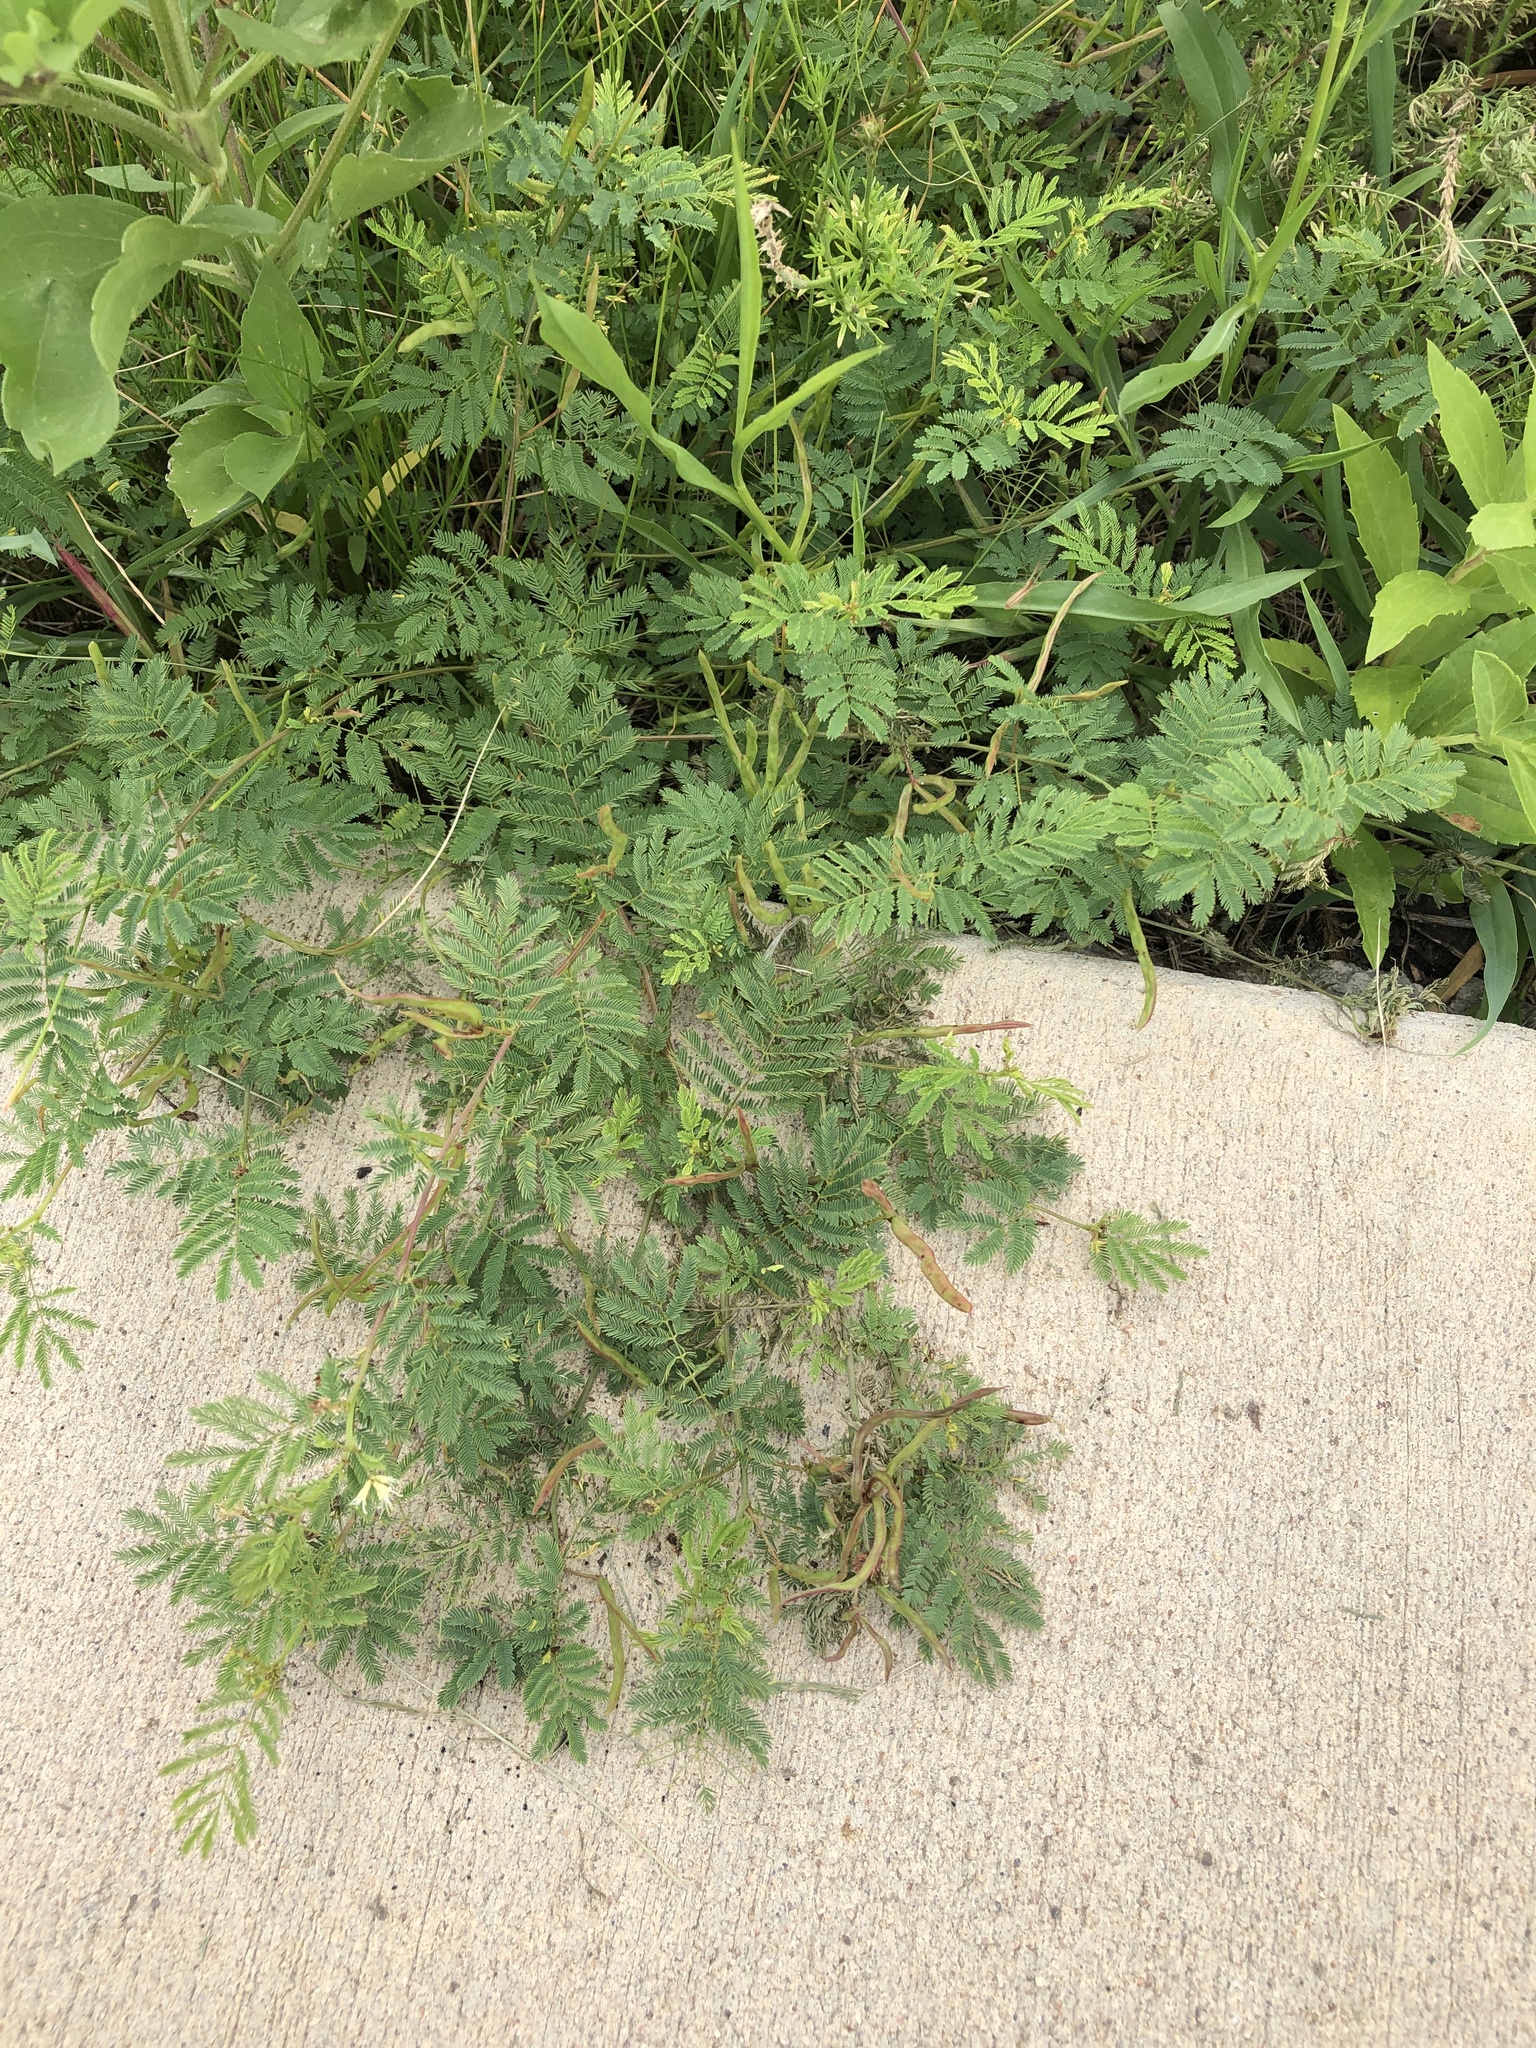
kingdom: Plantae
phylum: Tracheophyta
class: Magnoliopsida
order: Fabales
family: Fabaceae
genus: Desmanthus
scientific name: Desmanthus leptolobus
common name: Prairie-mimosa
